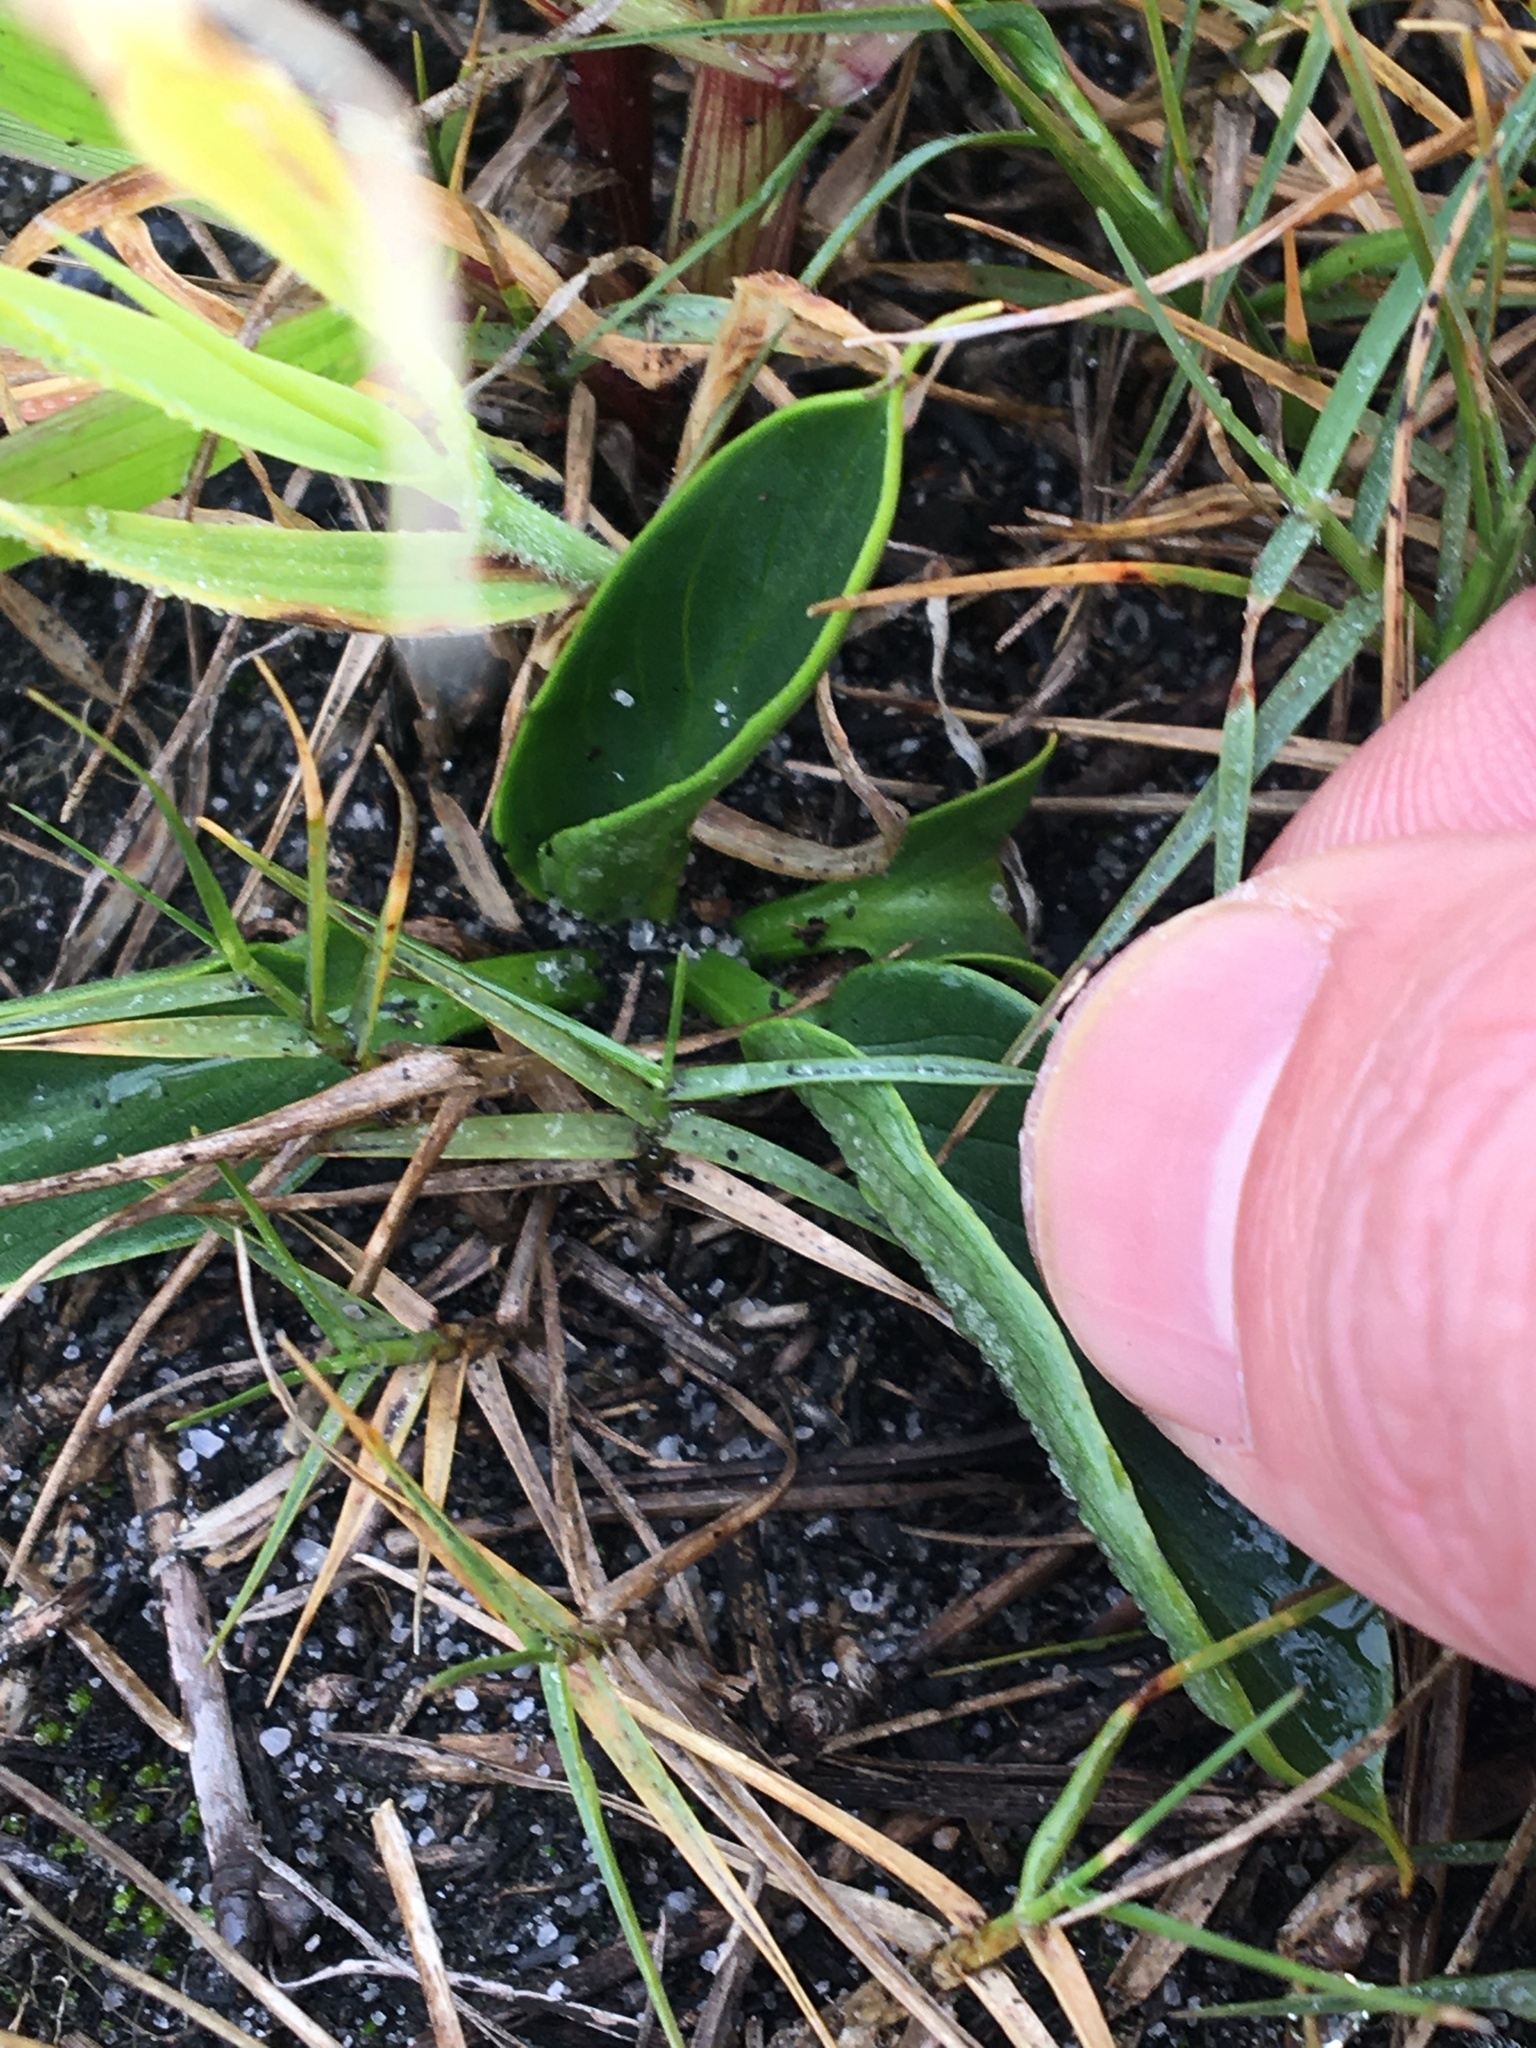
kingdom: Plantae
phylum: Tracheophyta
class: Liliopsida
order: Alismatales
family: Araceae
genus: Zantedeschia
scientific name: Zantedeschia aethiopica
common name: Altar-lily
